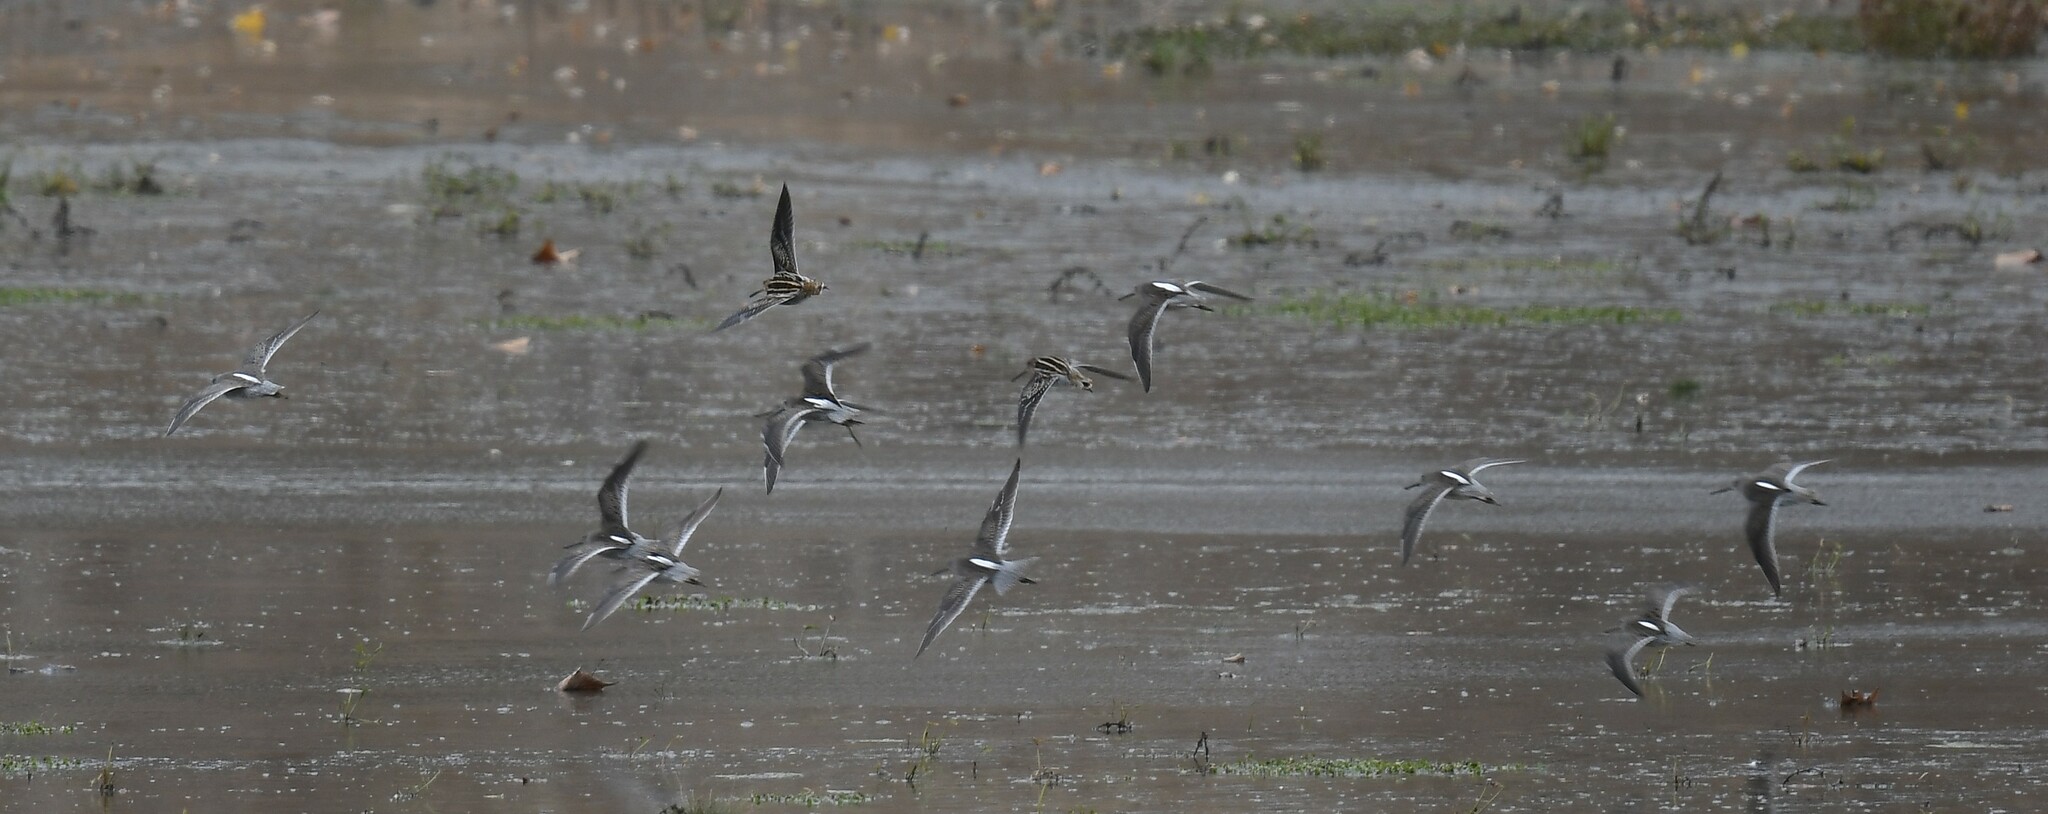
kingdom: Animalia
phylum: Chordata
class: Aves
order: Charadriiformes
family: Scolopacidae
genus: Gallinago
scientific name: Gallinago delicata
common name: Wilson's snipe
